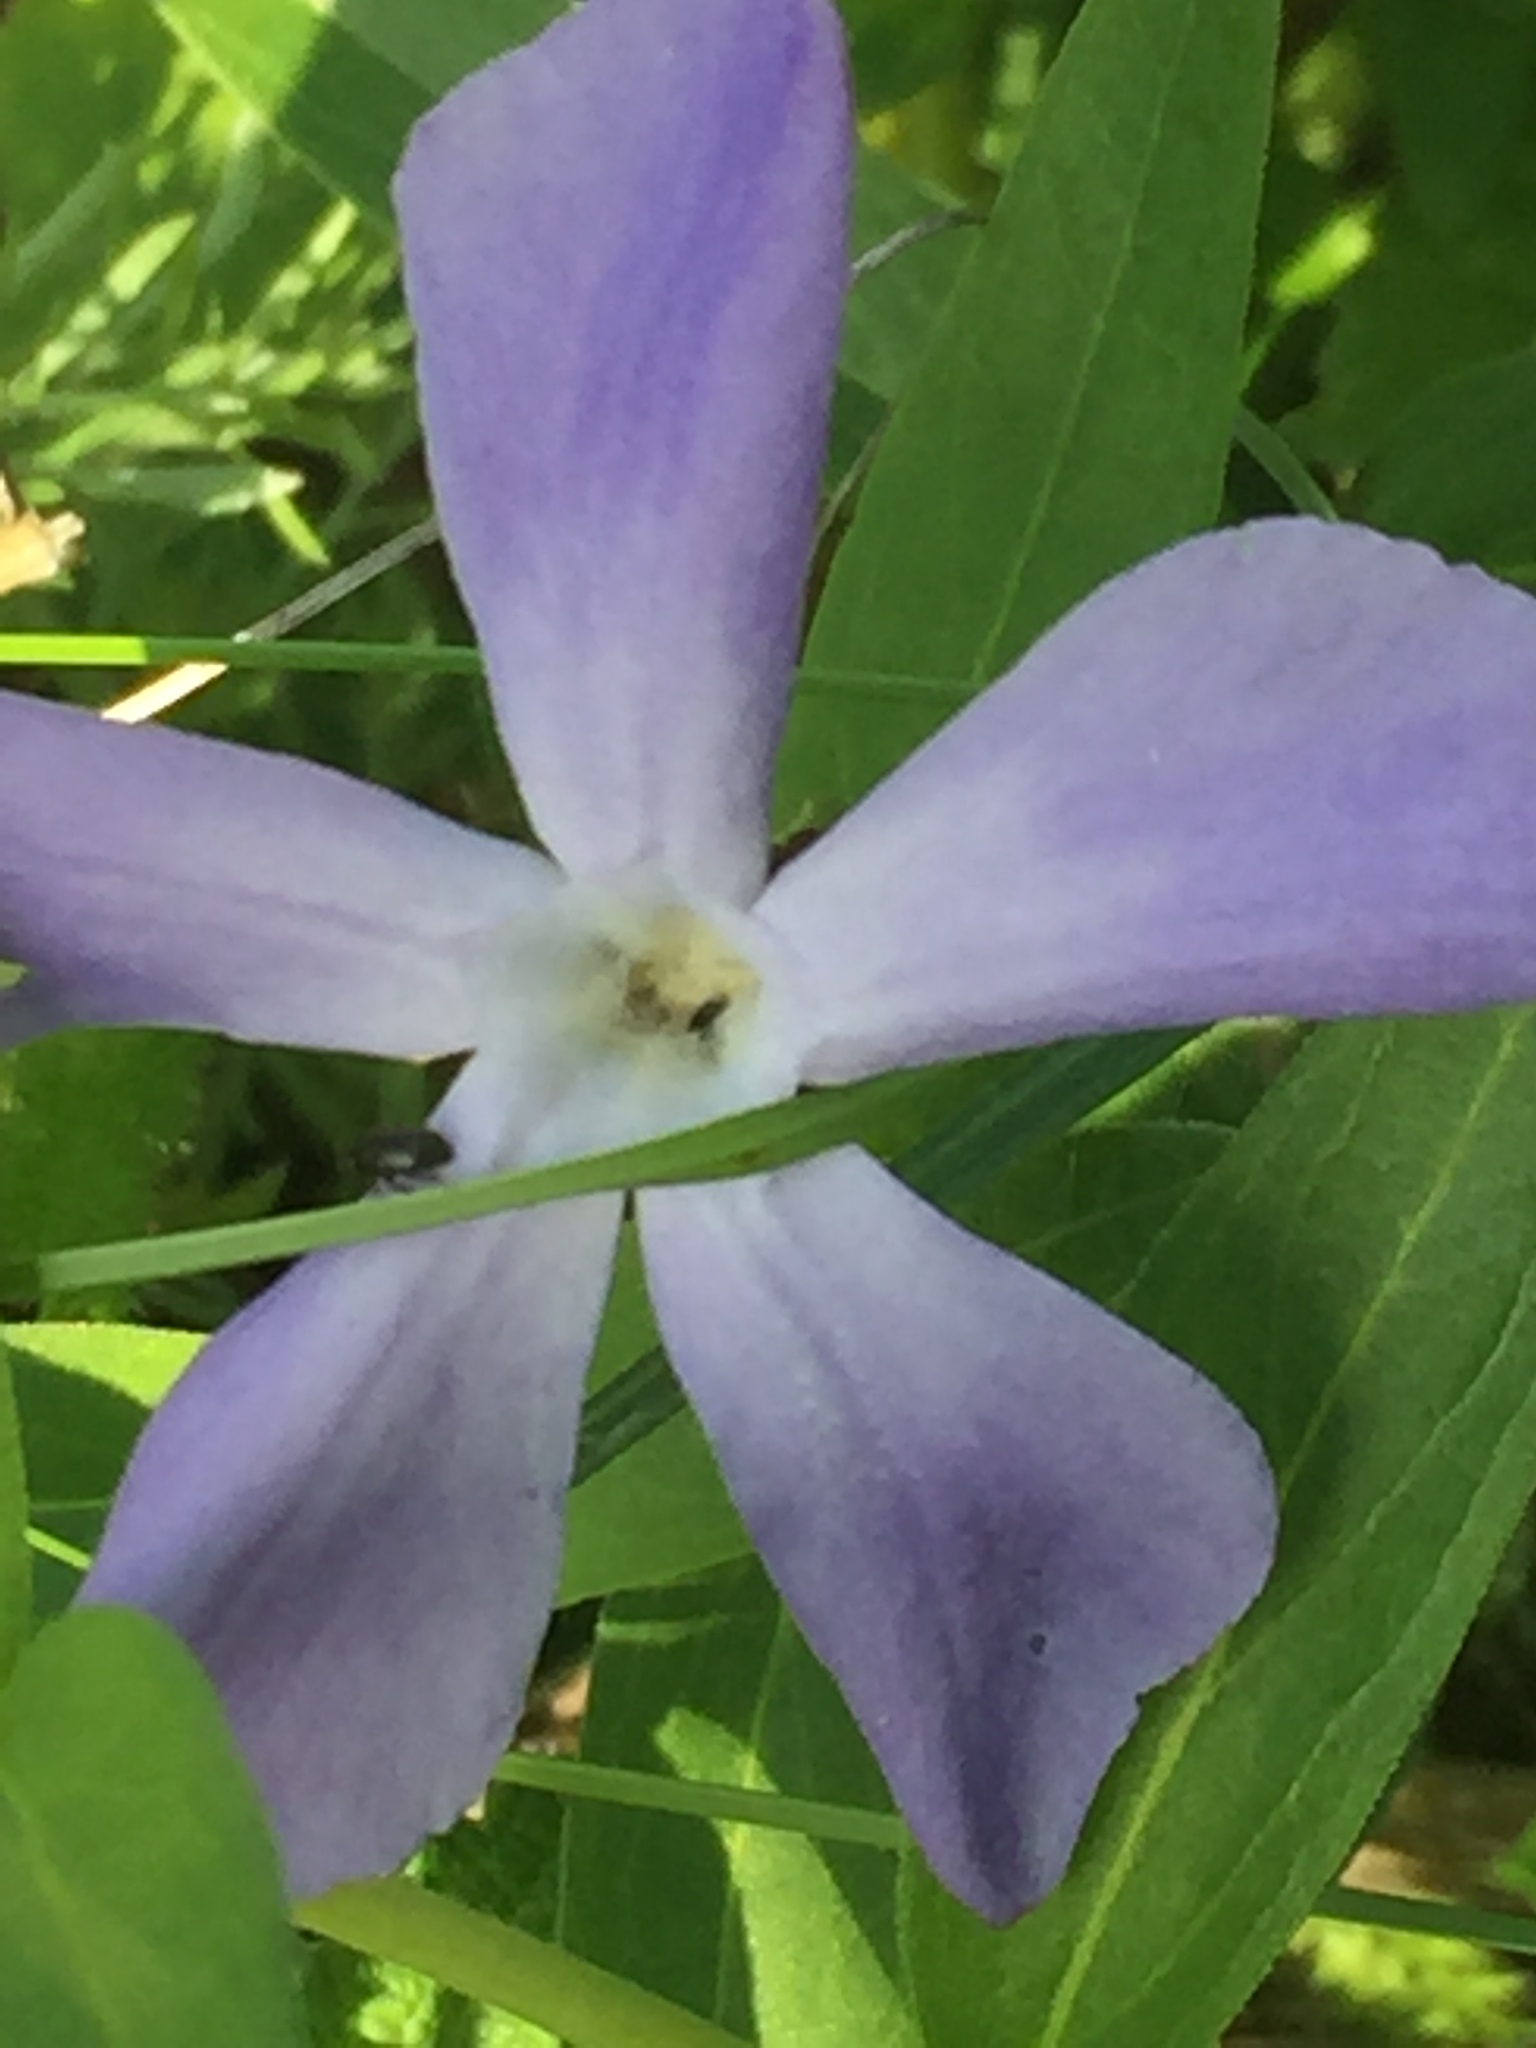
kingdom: Plantae
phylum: Tracheophyta
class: Magnoliopsida
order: Gentianales
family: Apocynaceae
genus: Vinca
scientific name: Vinca herbacea
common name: Herbaceous periwinkle
